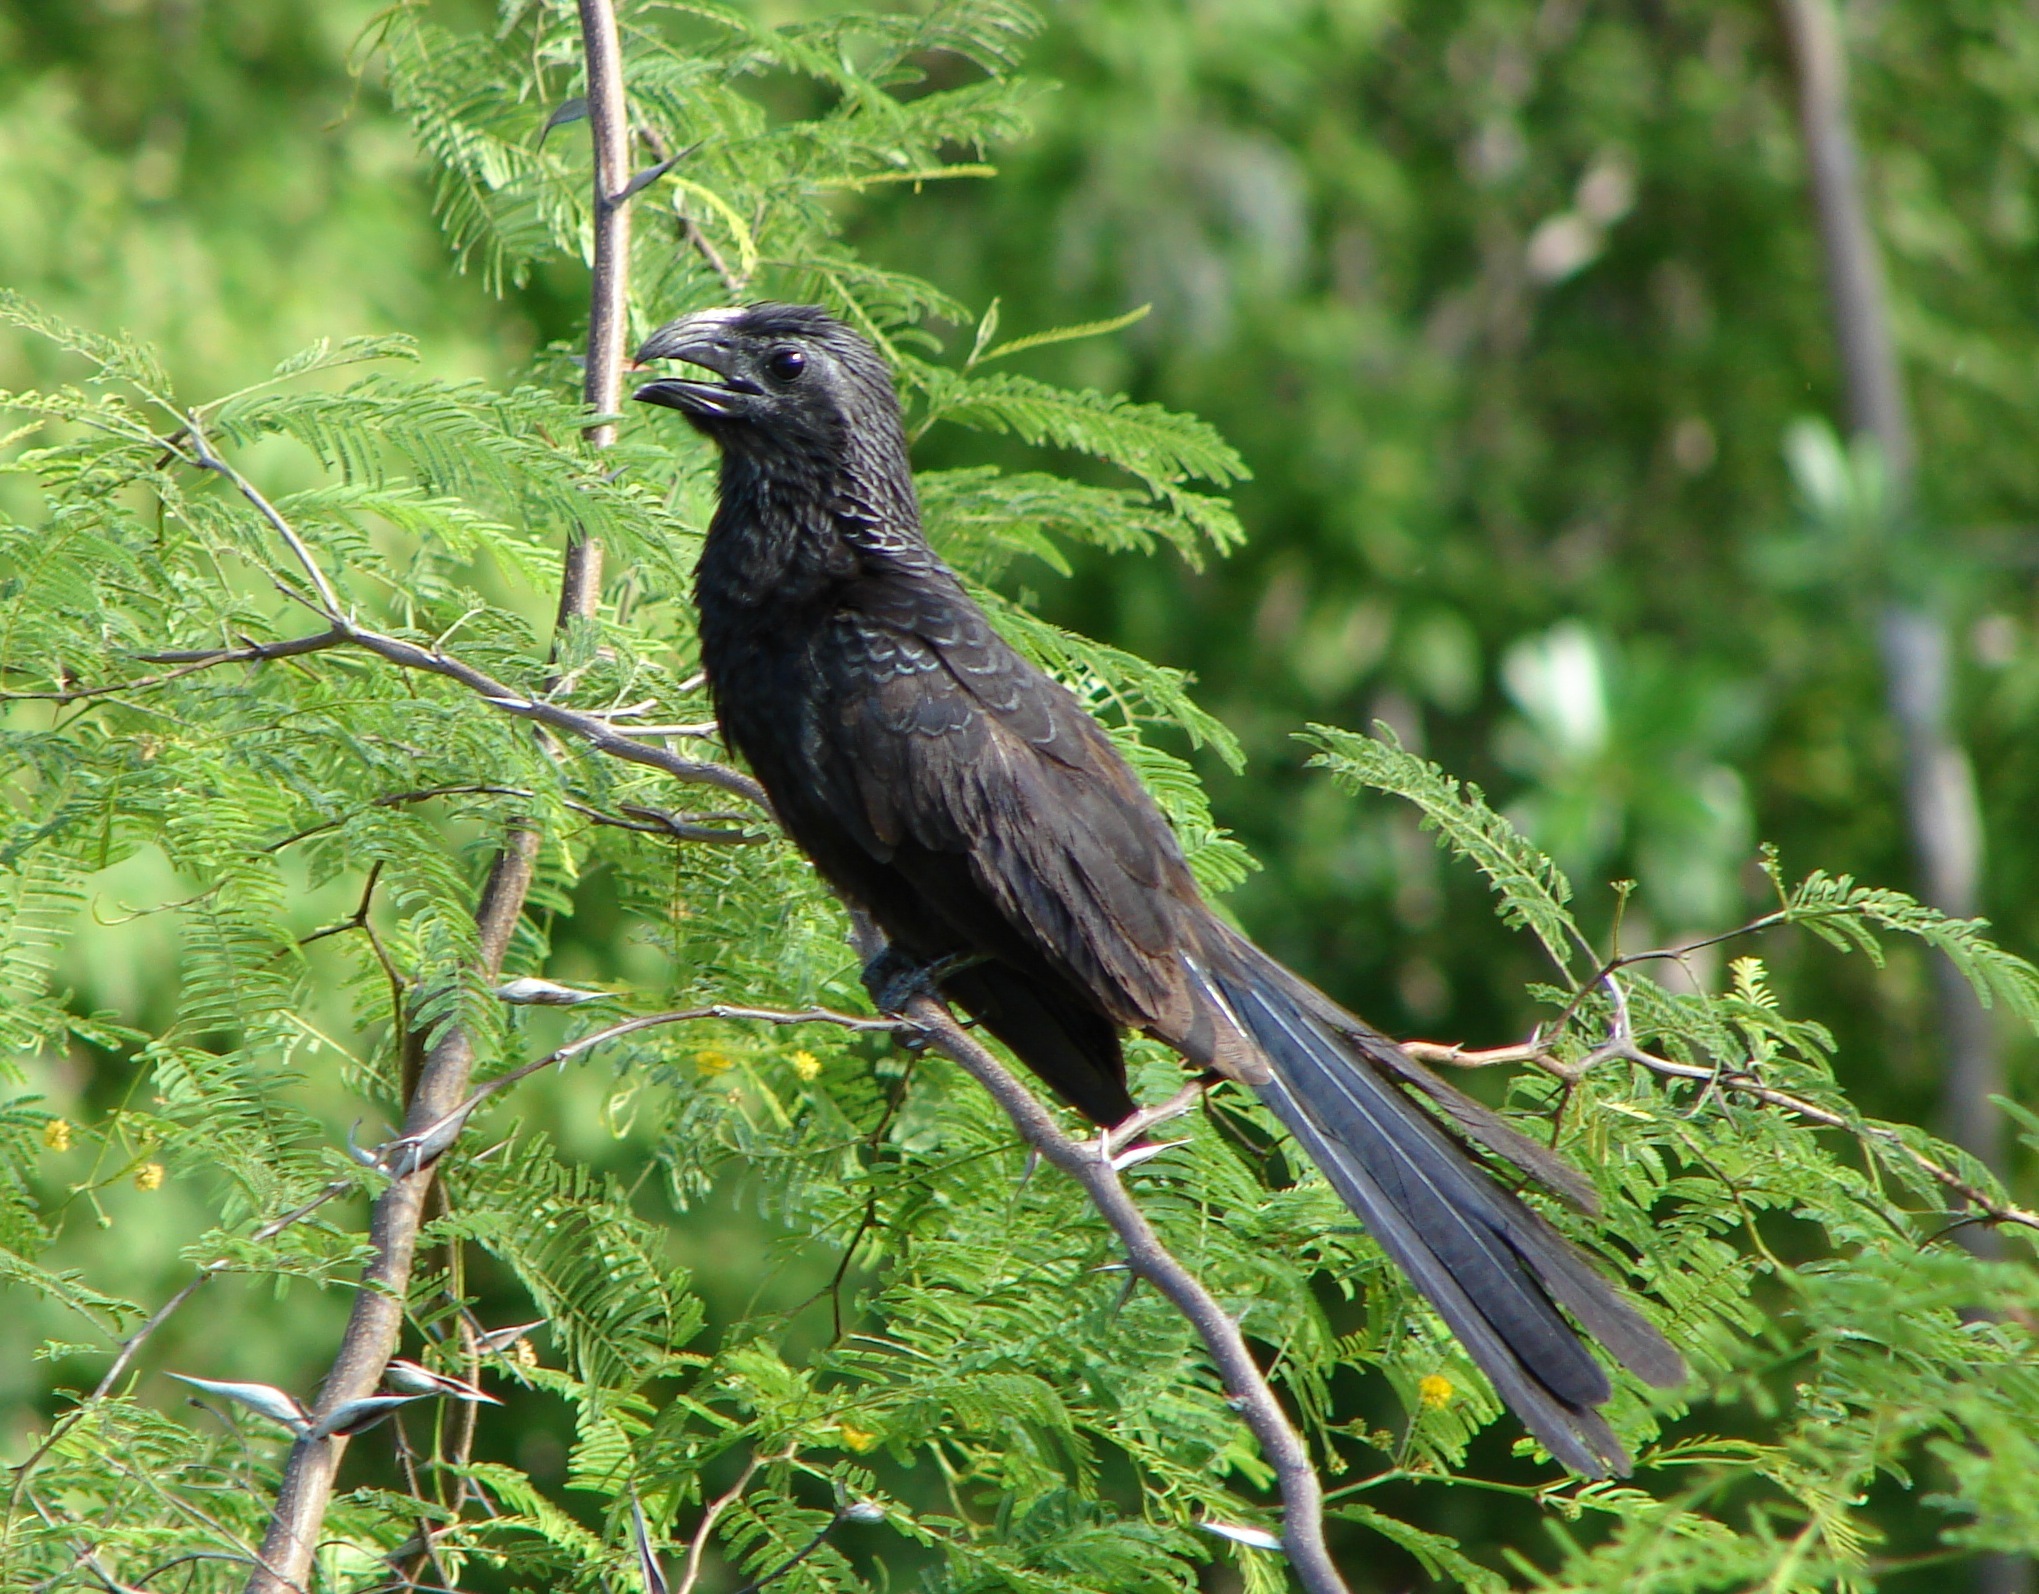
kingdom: Animalia
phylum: Chordata
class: Aves
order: Cuculiformes
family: Cuculidae
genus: Crotophaga
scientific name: Crotophaga sulcirostris
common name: Groove-billed ani
